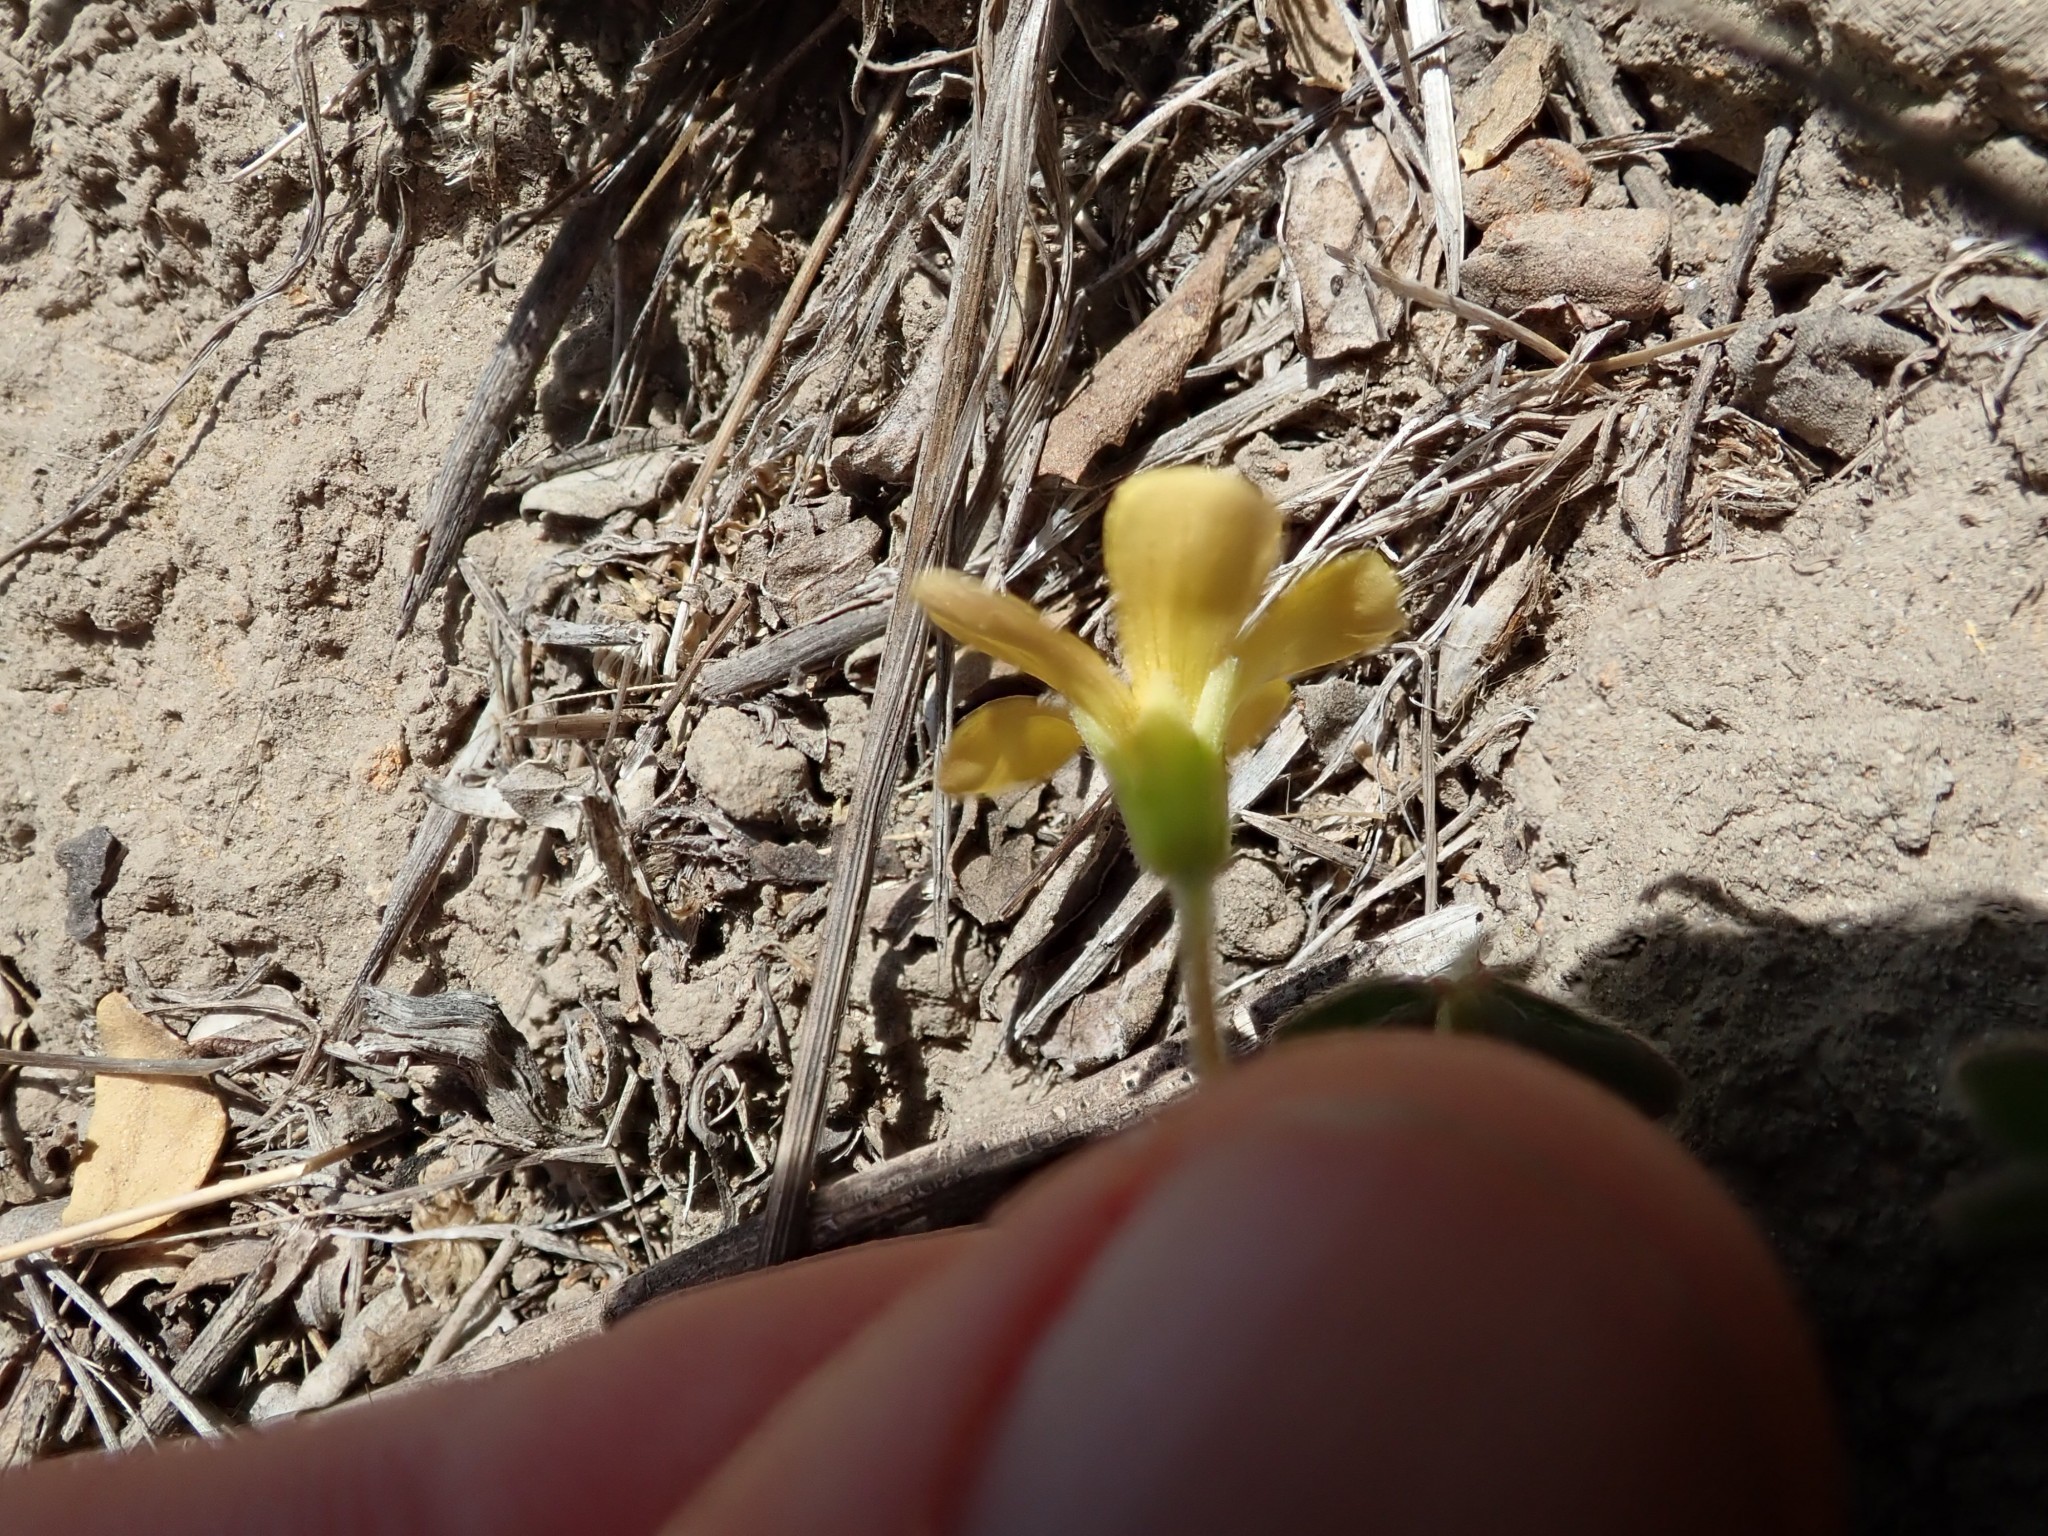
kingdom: Plantae
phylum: Tracheophyta
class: Magnoliopsida
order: Oxalidales
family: Oxalidaceae
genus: Oxalis
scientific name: Oxalis pilosa
